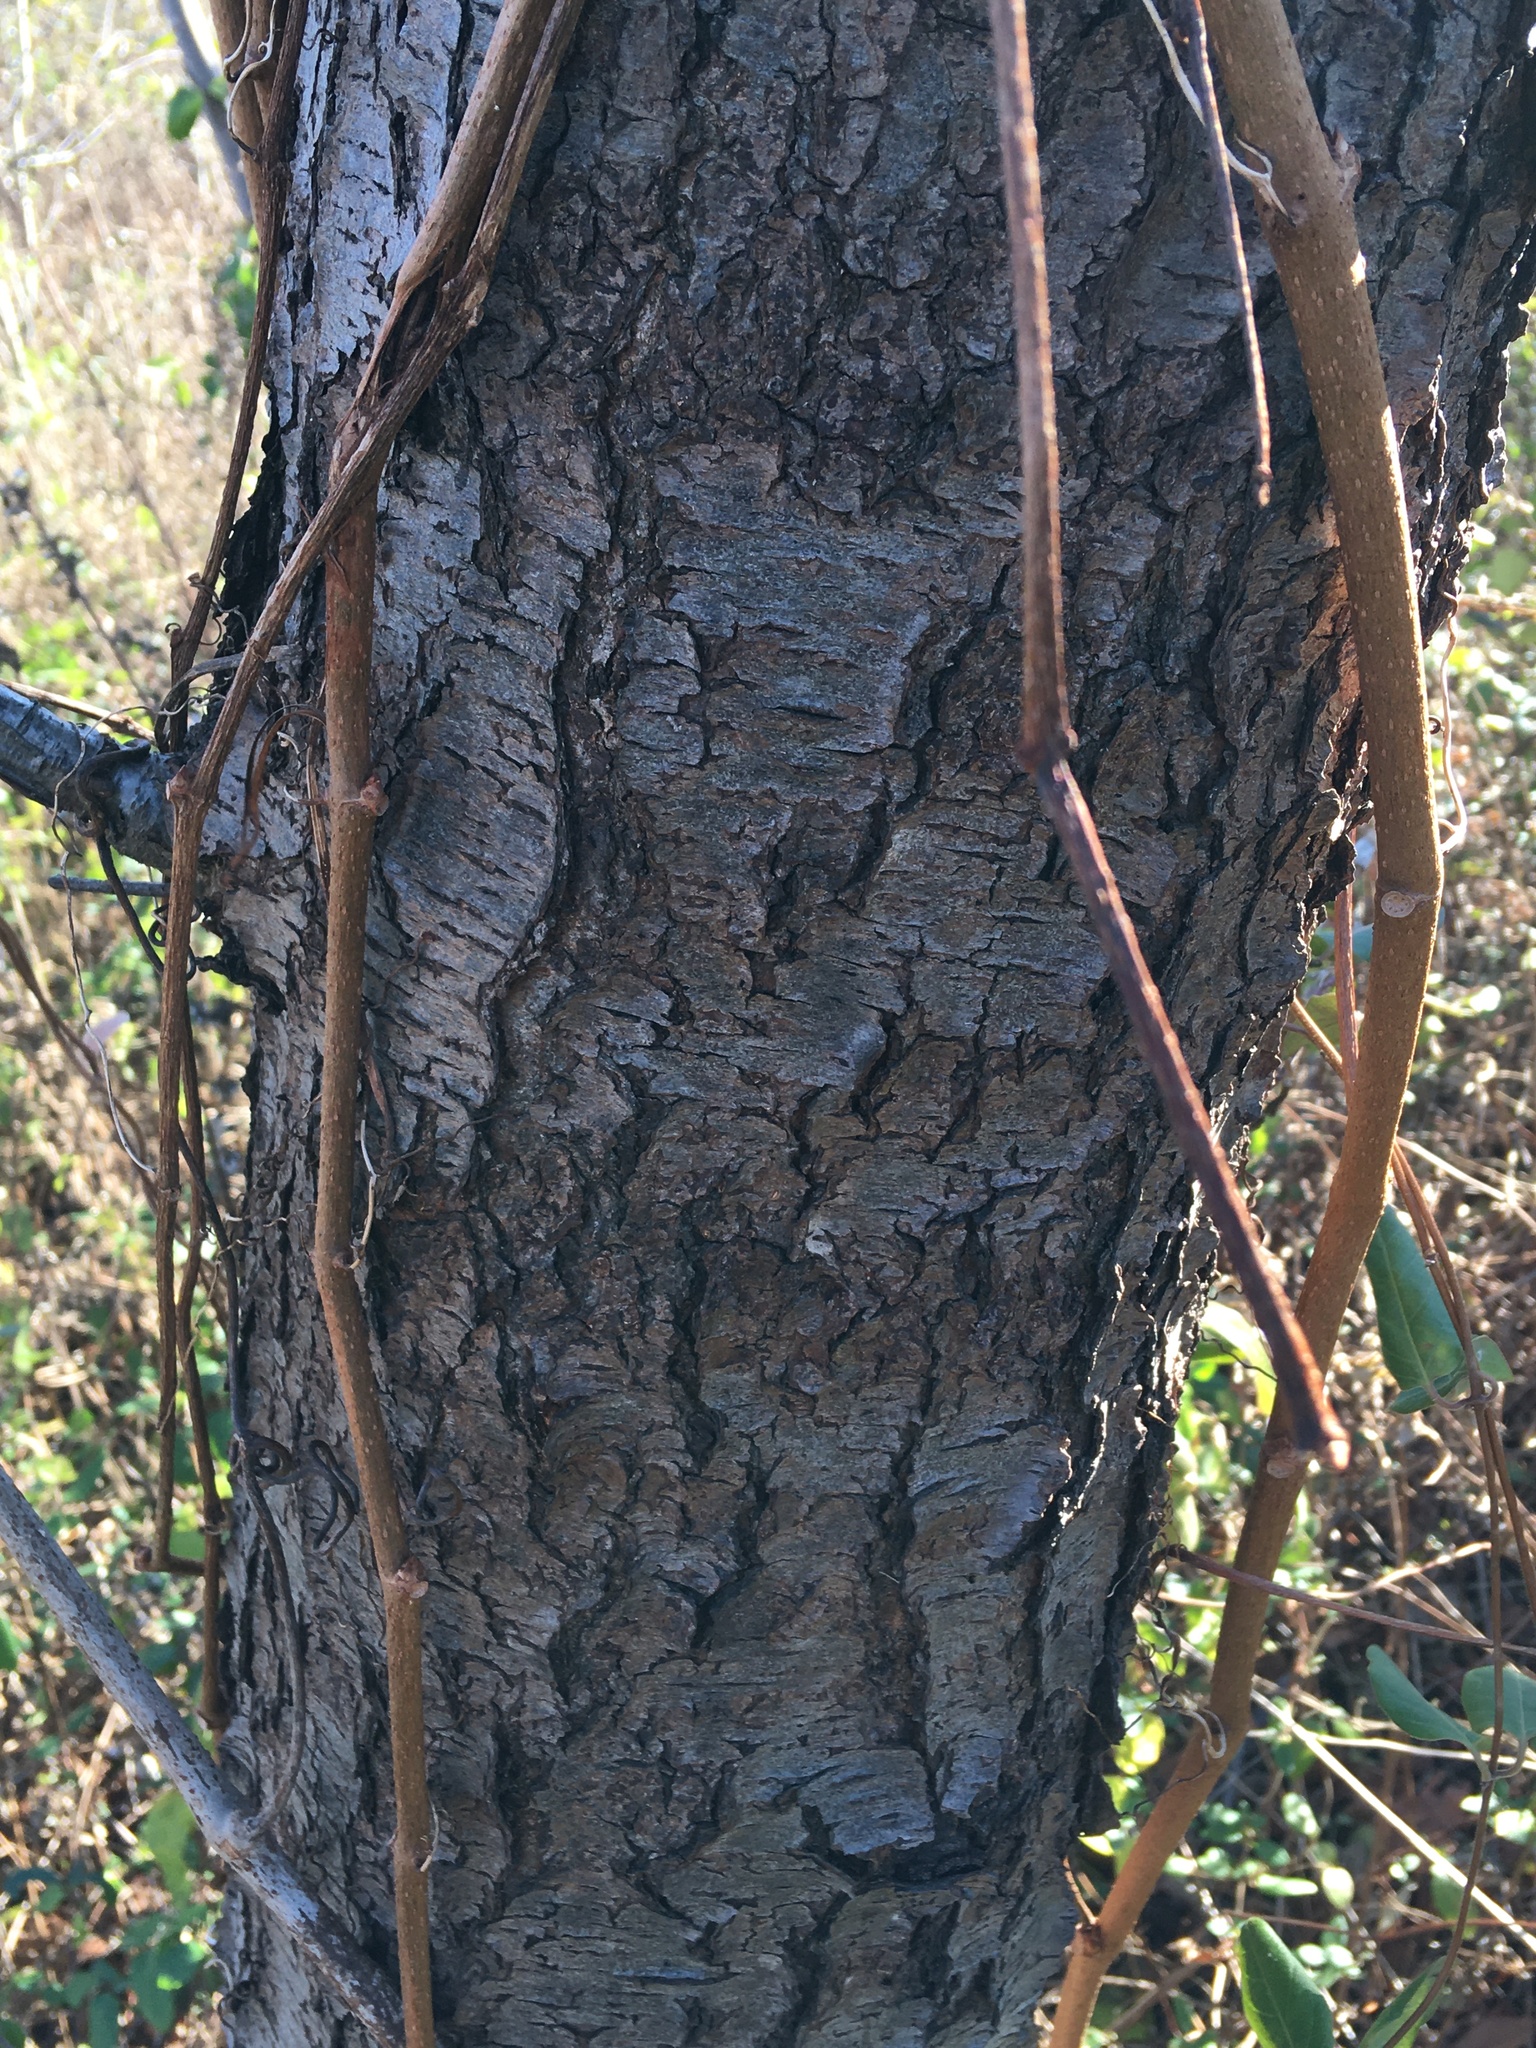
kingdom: Plantae
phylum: Tracheophyta
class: Magnoliopsida
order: Rosales
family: Rosaceae
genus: Prunus
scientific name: Prunus serotina
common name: Black cherry
